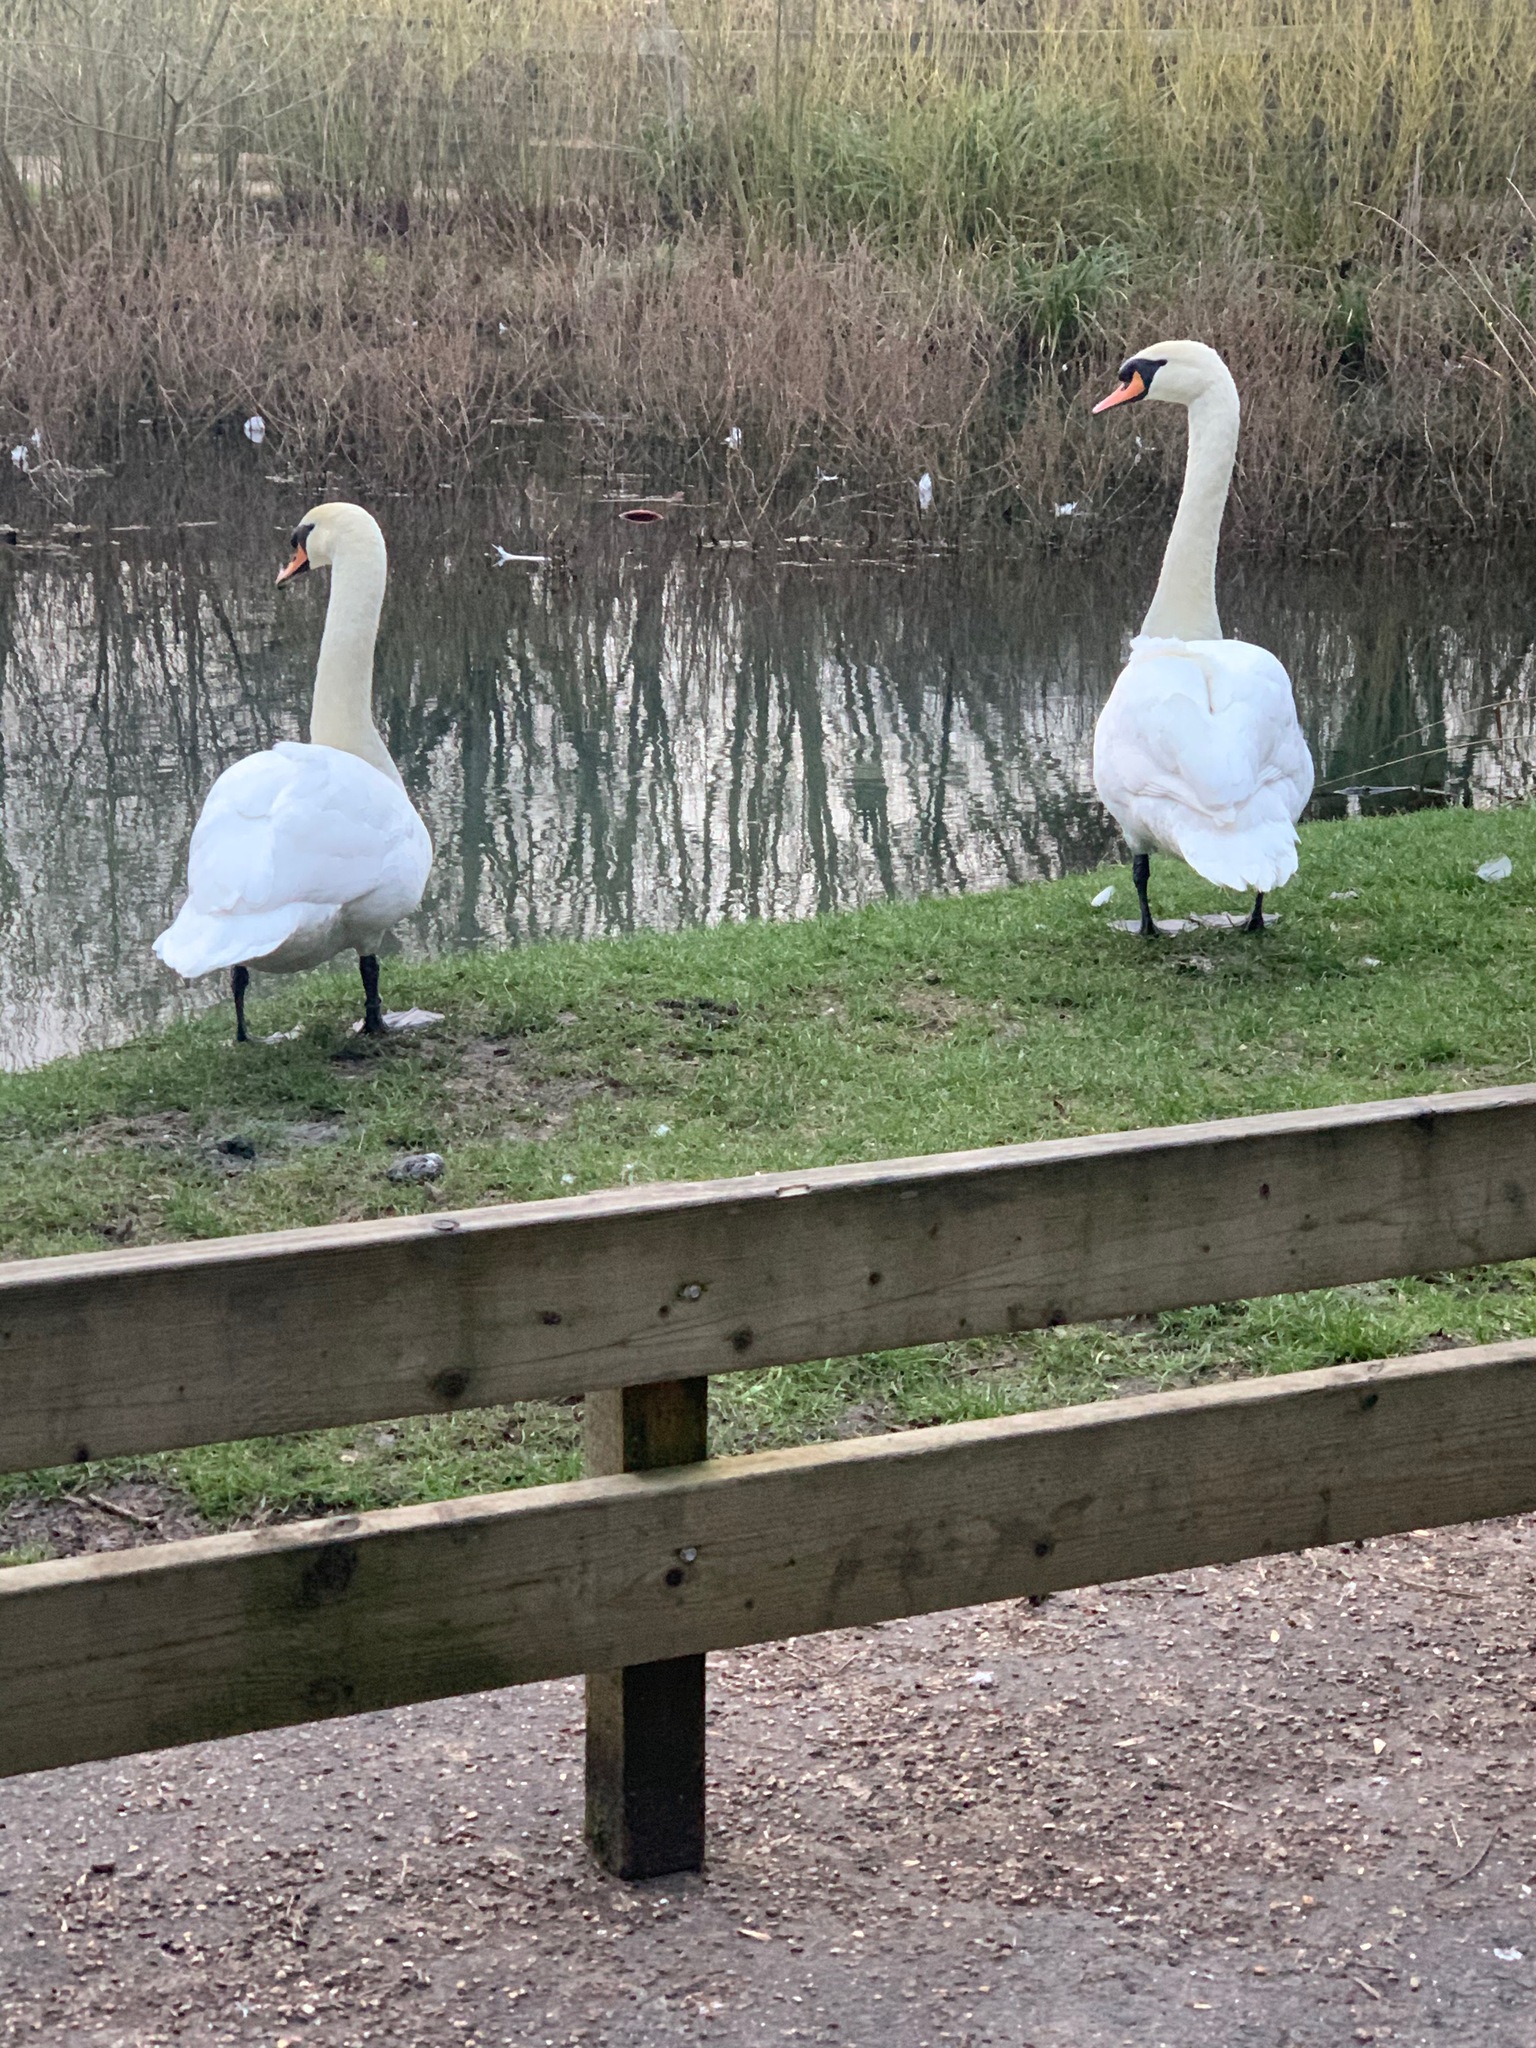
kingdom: Animalia
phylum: Chordata
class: Aves
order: Anseriformes
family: Anatidae
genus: Cygnus
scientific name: Cygnus olor
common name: Mute swan
